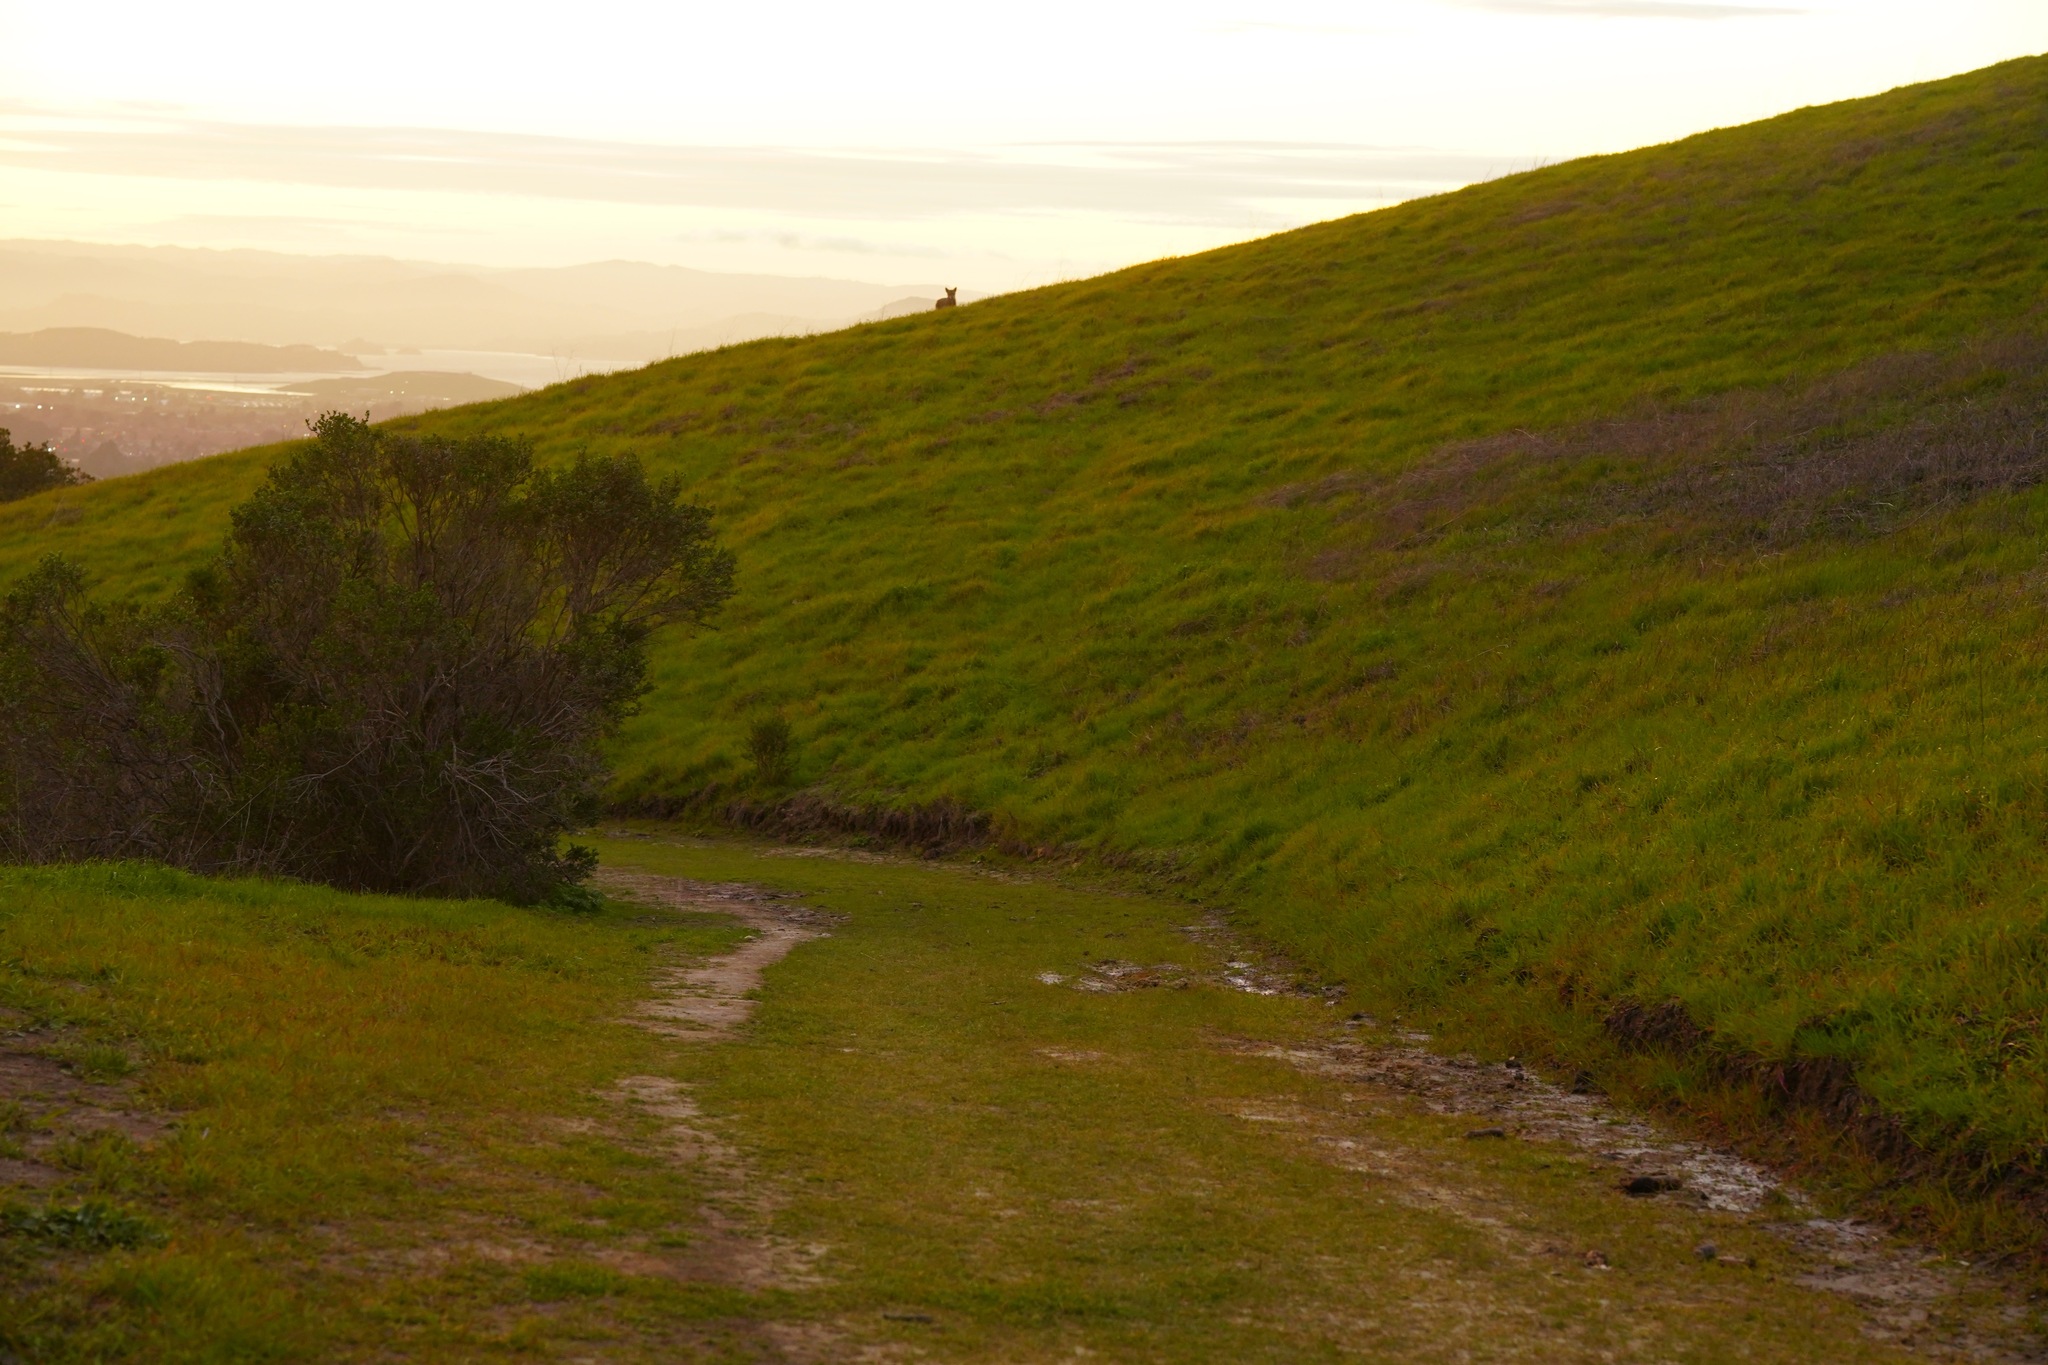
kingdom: Animalia
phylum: Chordata
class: Mammalia
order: Carnivora
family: Canidae
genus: Canis
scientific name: Canis latrans
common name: Coyote
